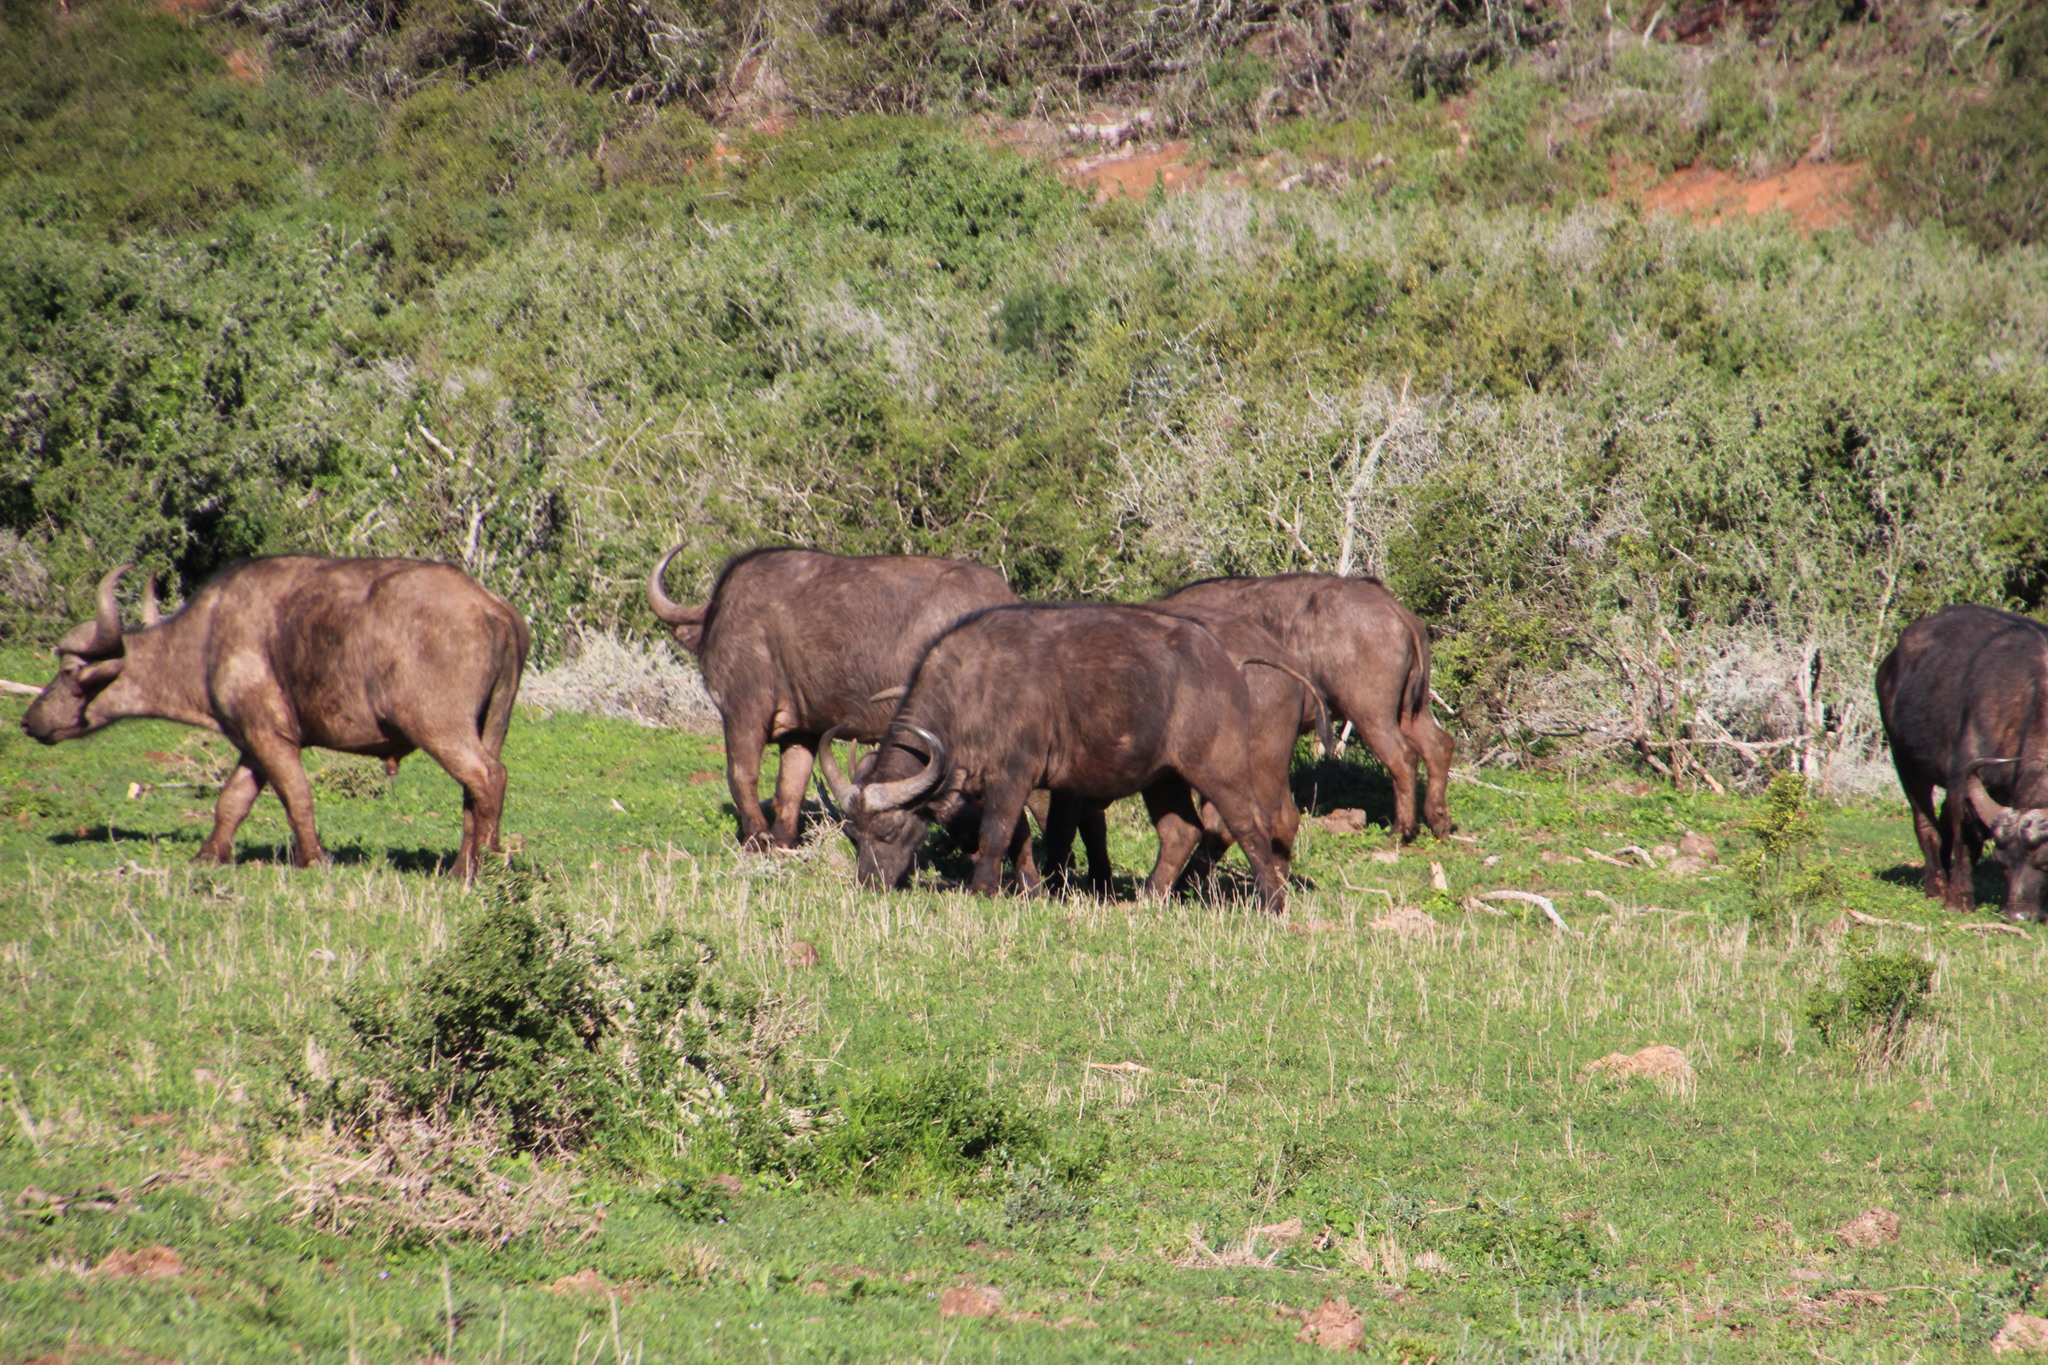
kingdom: Animalia
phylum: Chordata
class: Mammalia
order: Artiodactyla
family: Bovidae
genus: Syncerus
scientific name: Syncerus caffer
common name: African buffalo
